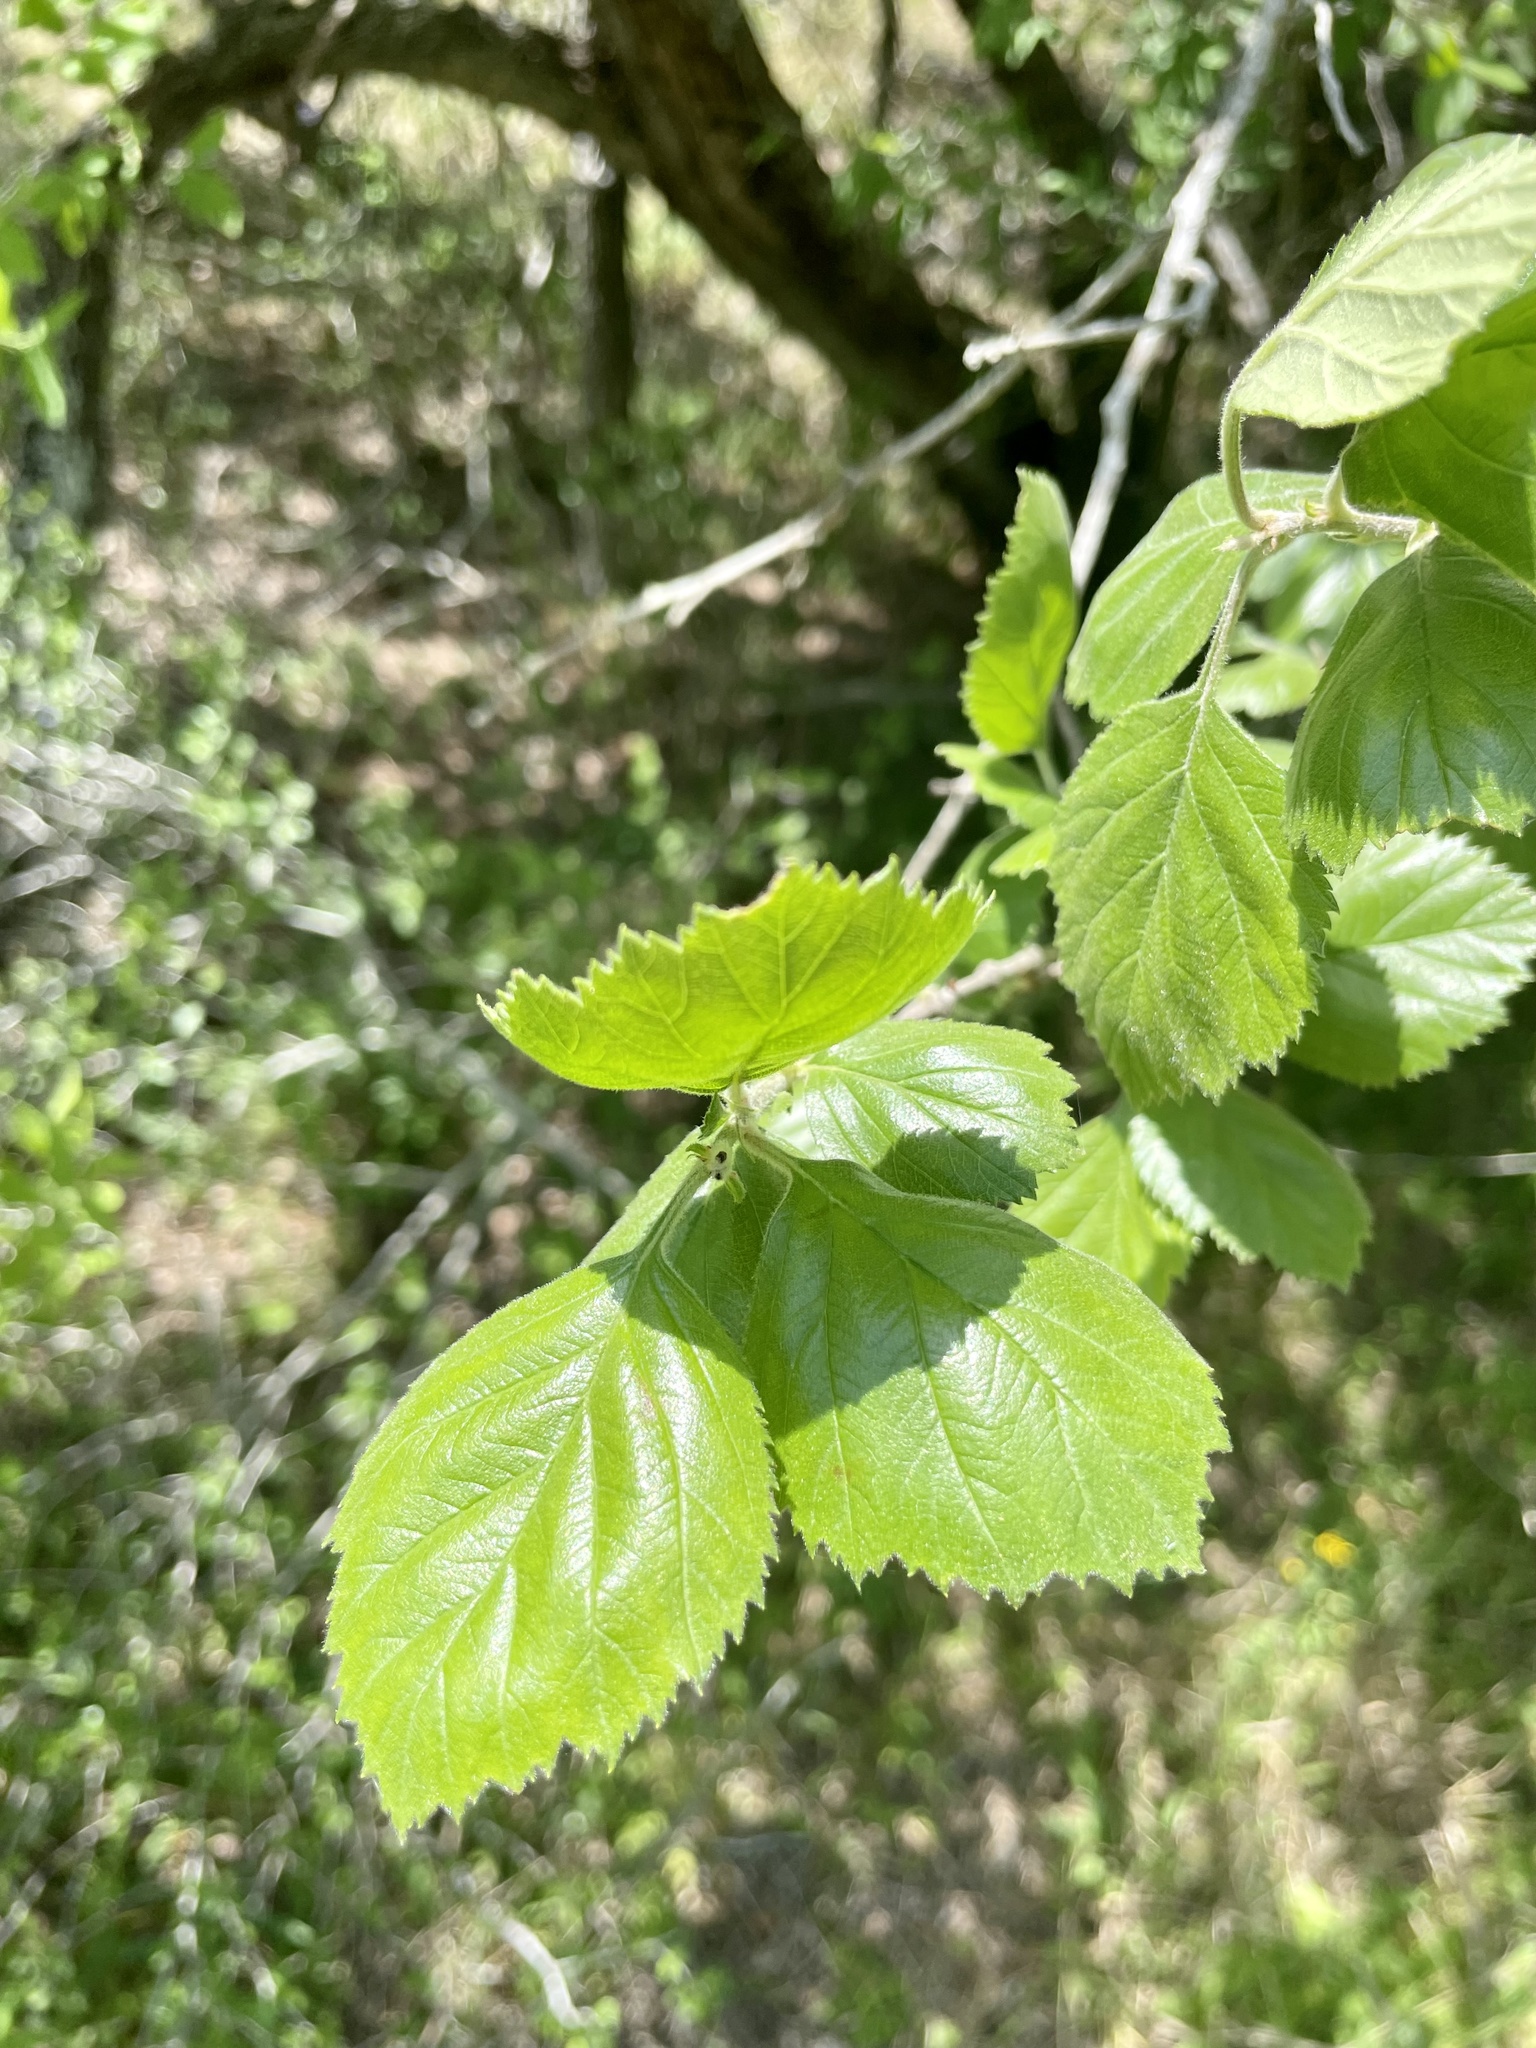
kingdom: Plantae
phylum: Tracheophyta
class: Magnoliopsida
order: Rosales
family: Rosaceae
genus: Crataegus
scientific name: Crataegus mollis
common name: Downy hawthorn
